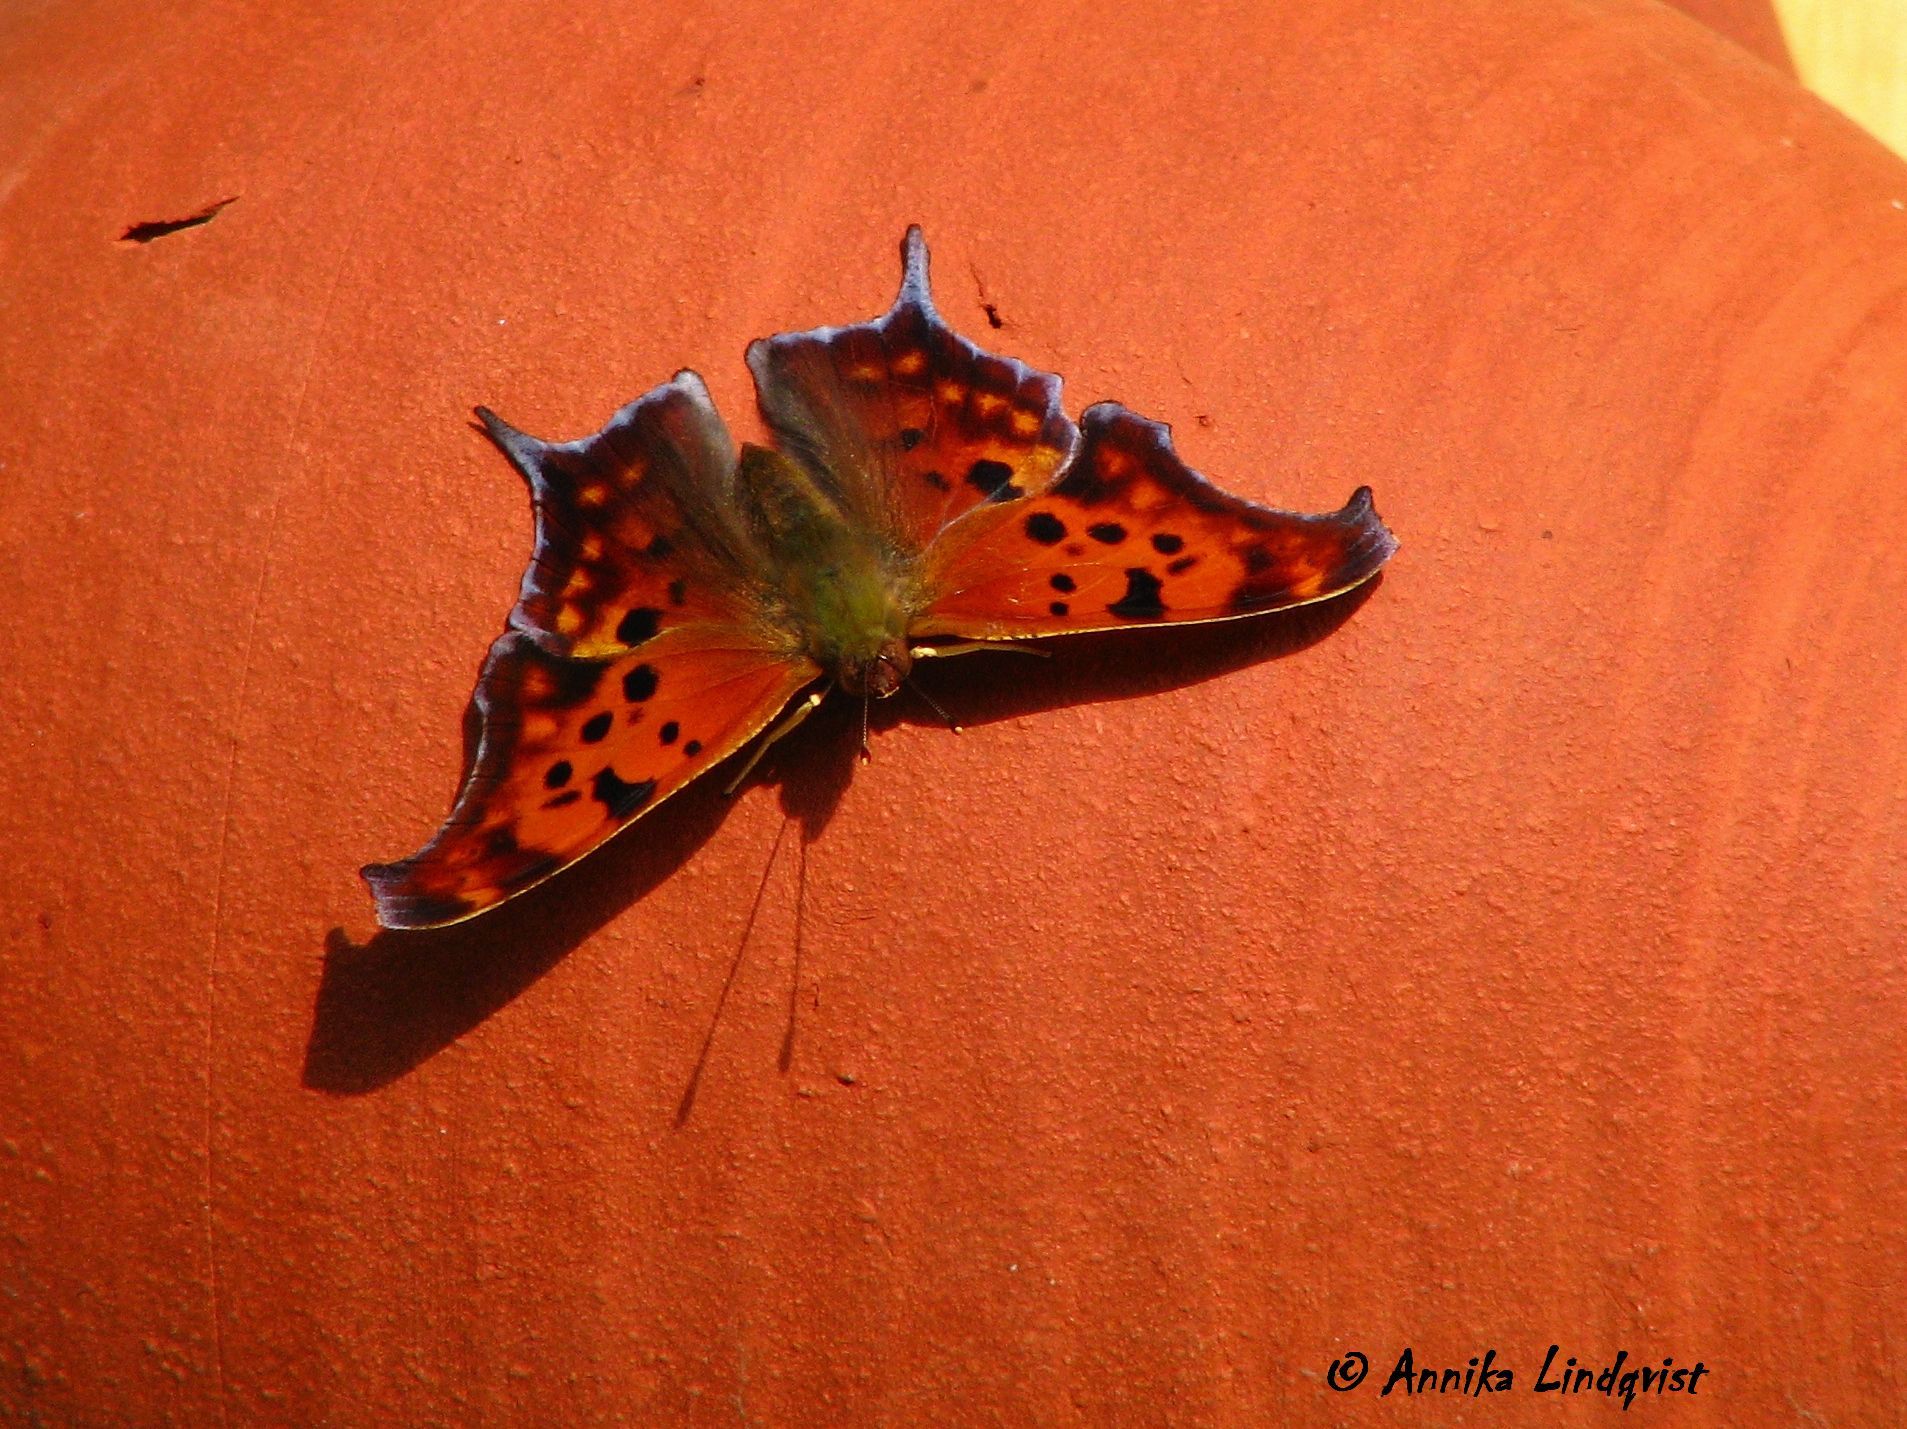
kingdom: Animalia
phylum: Arthropoda
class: Insecta
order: Lepidoptera
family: Nymphalidae
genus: Polygonia
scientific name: Polygonia interrogationis
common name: Question mark
